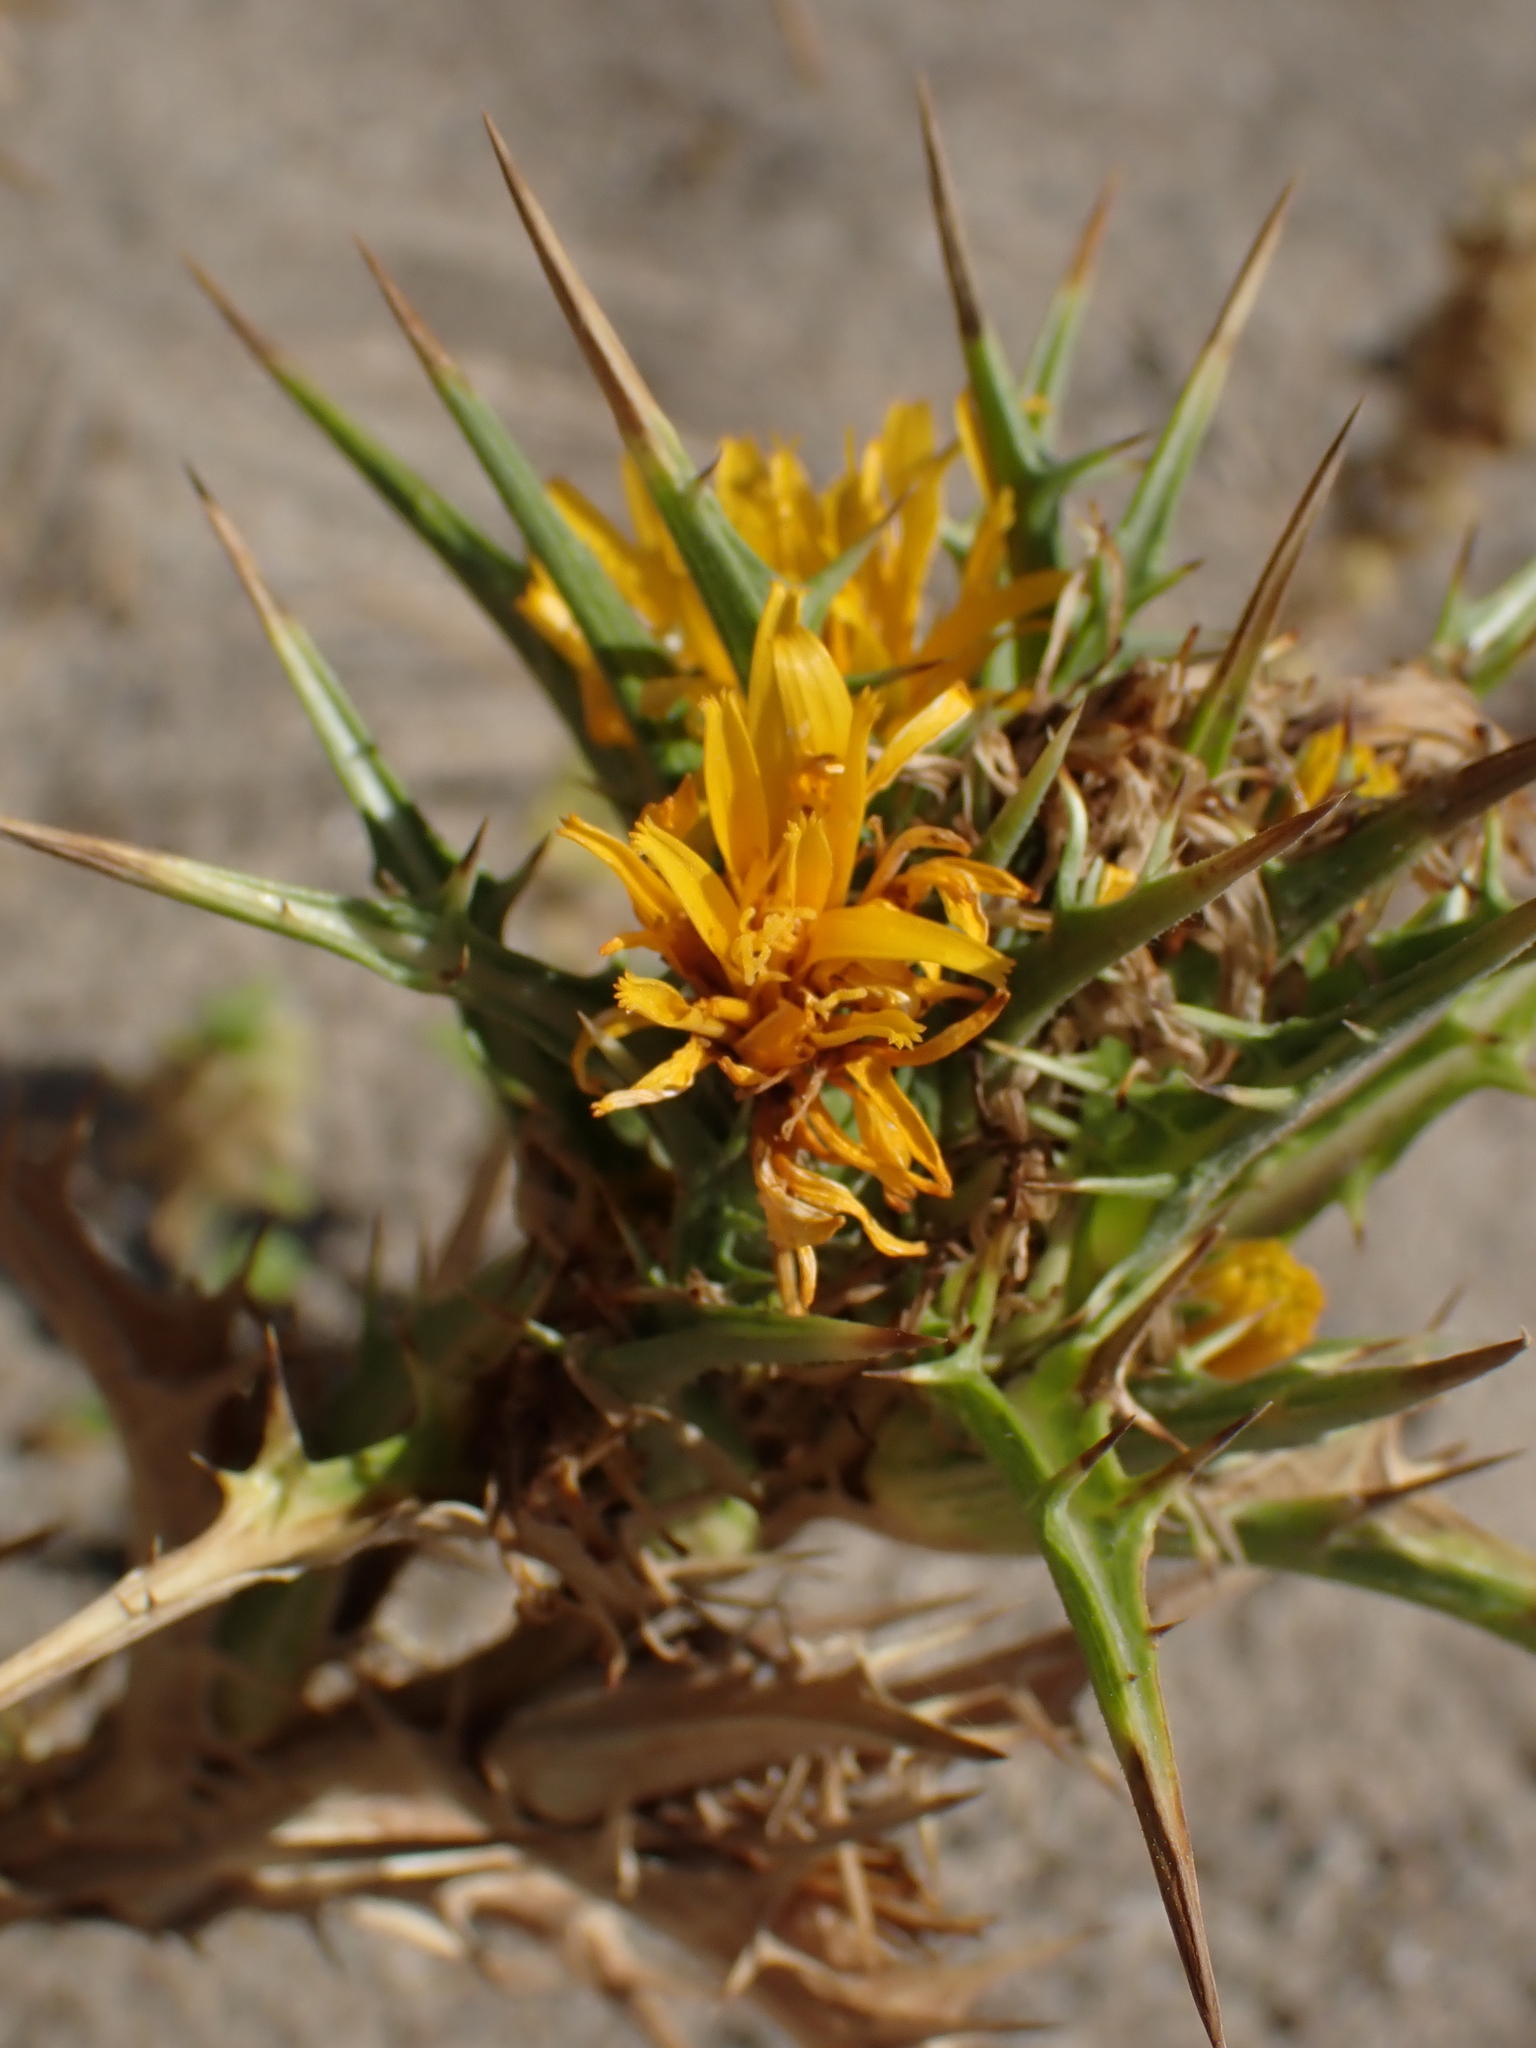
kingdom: Plantae
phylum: Tracheophyta
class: Magnoliopsida
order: Asterales
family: Asteraceae
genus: Scolymus
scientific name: Scolymus hispanicus
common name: Golden thistle
